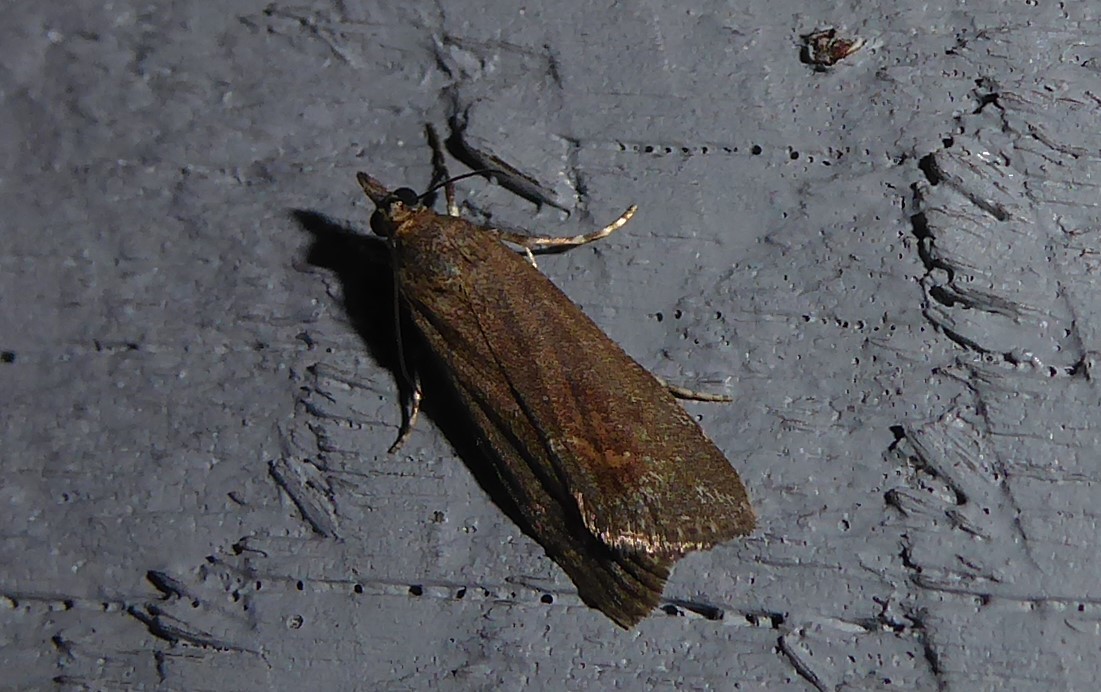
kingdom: Animalia
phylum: Arthropoda
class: Insecta
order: Lepidoptera
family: Crambidae
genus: Eudonia
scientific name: Eudonia submarginalis
